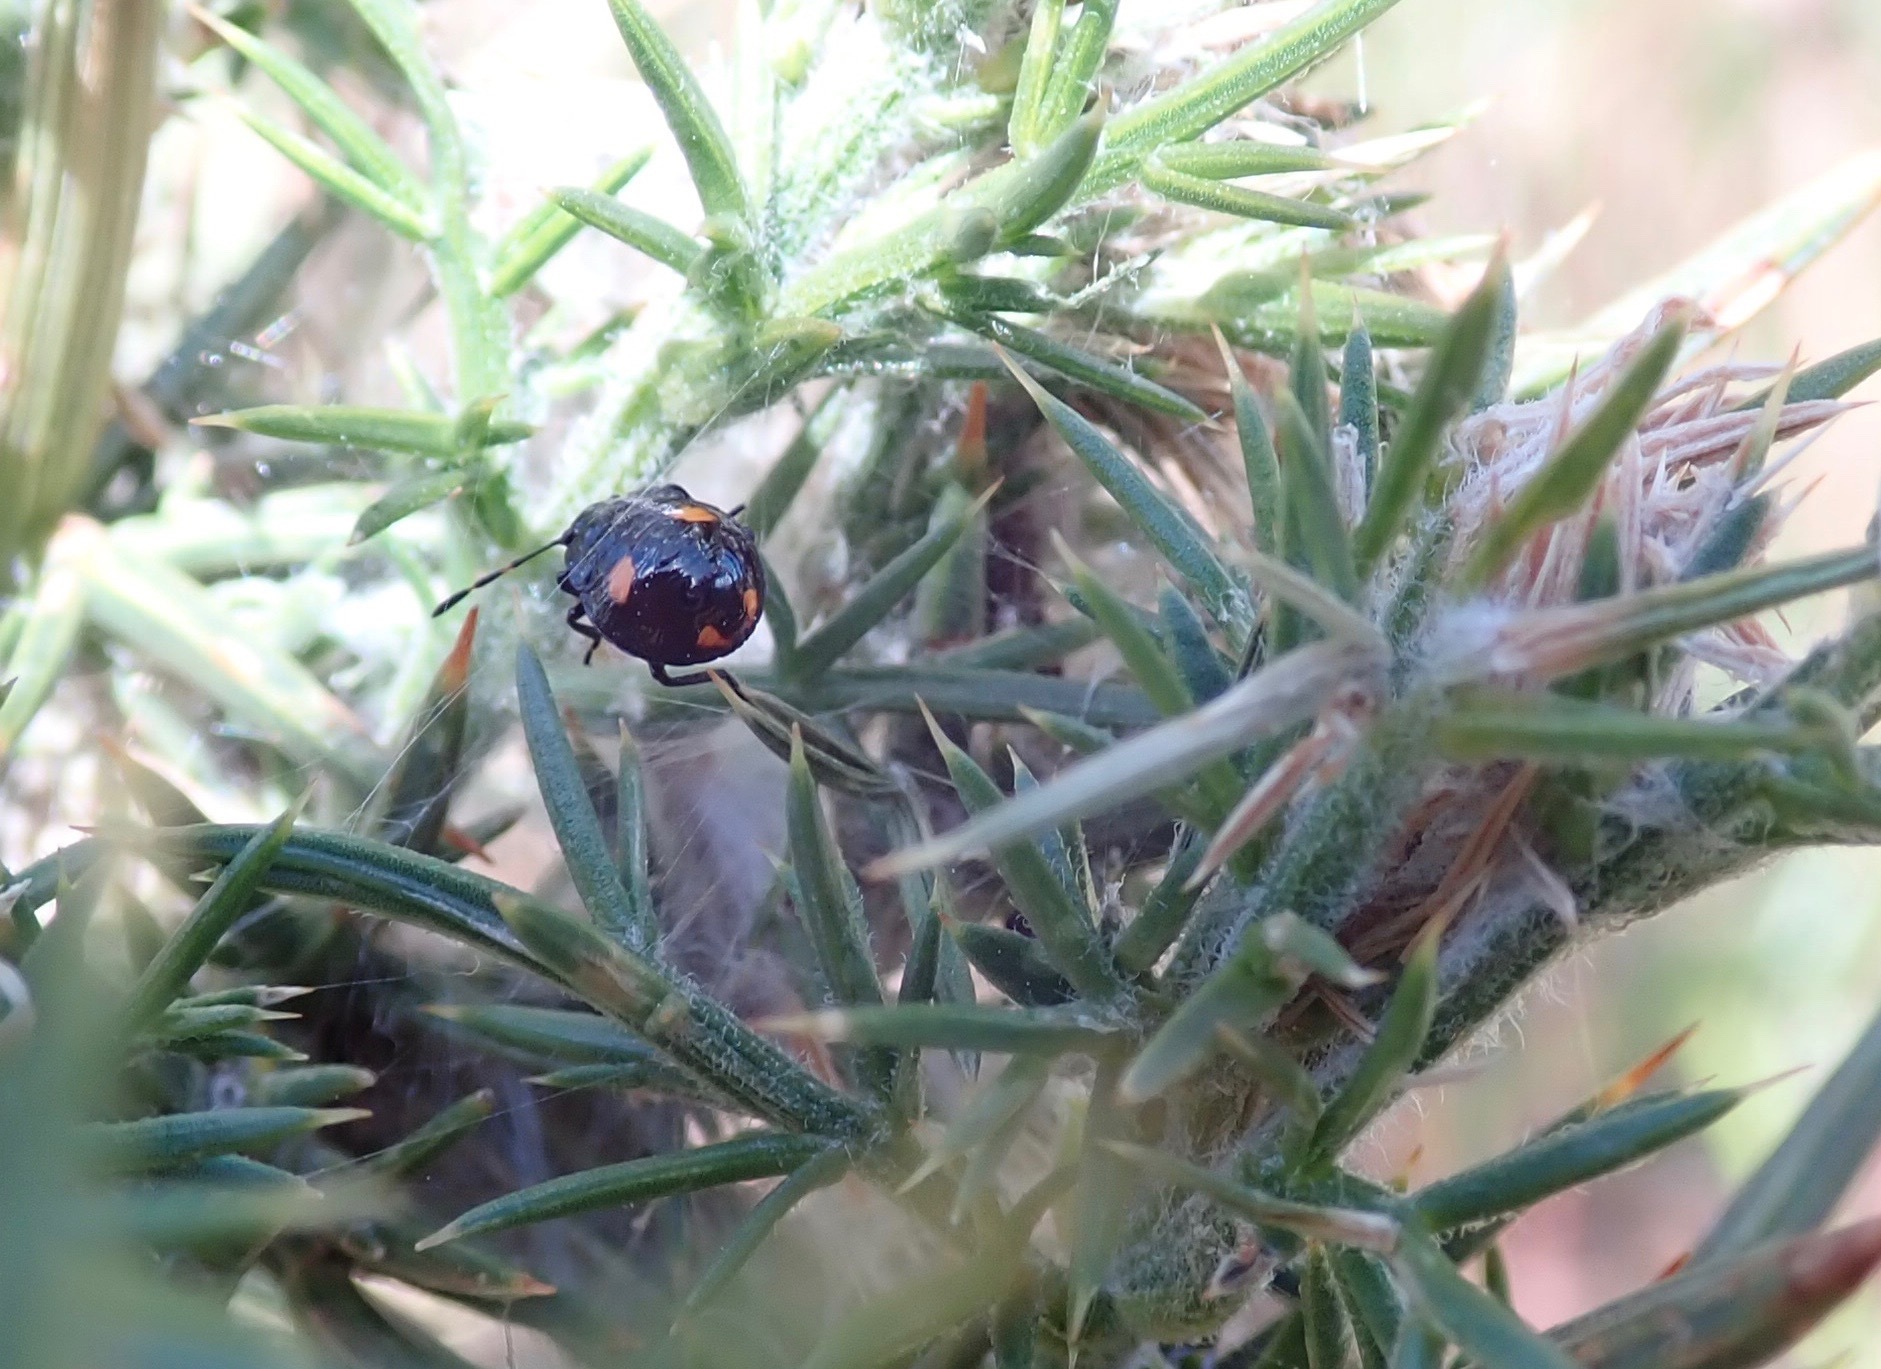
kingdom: Animalia
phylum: Arthropoda
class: Insecta
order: Hemiptera
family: Pentatomidae
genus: Cermatulus
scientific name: Cermatulus nasalis
